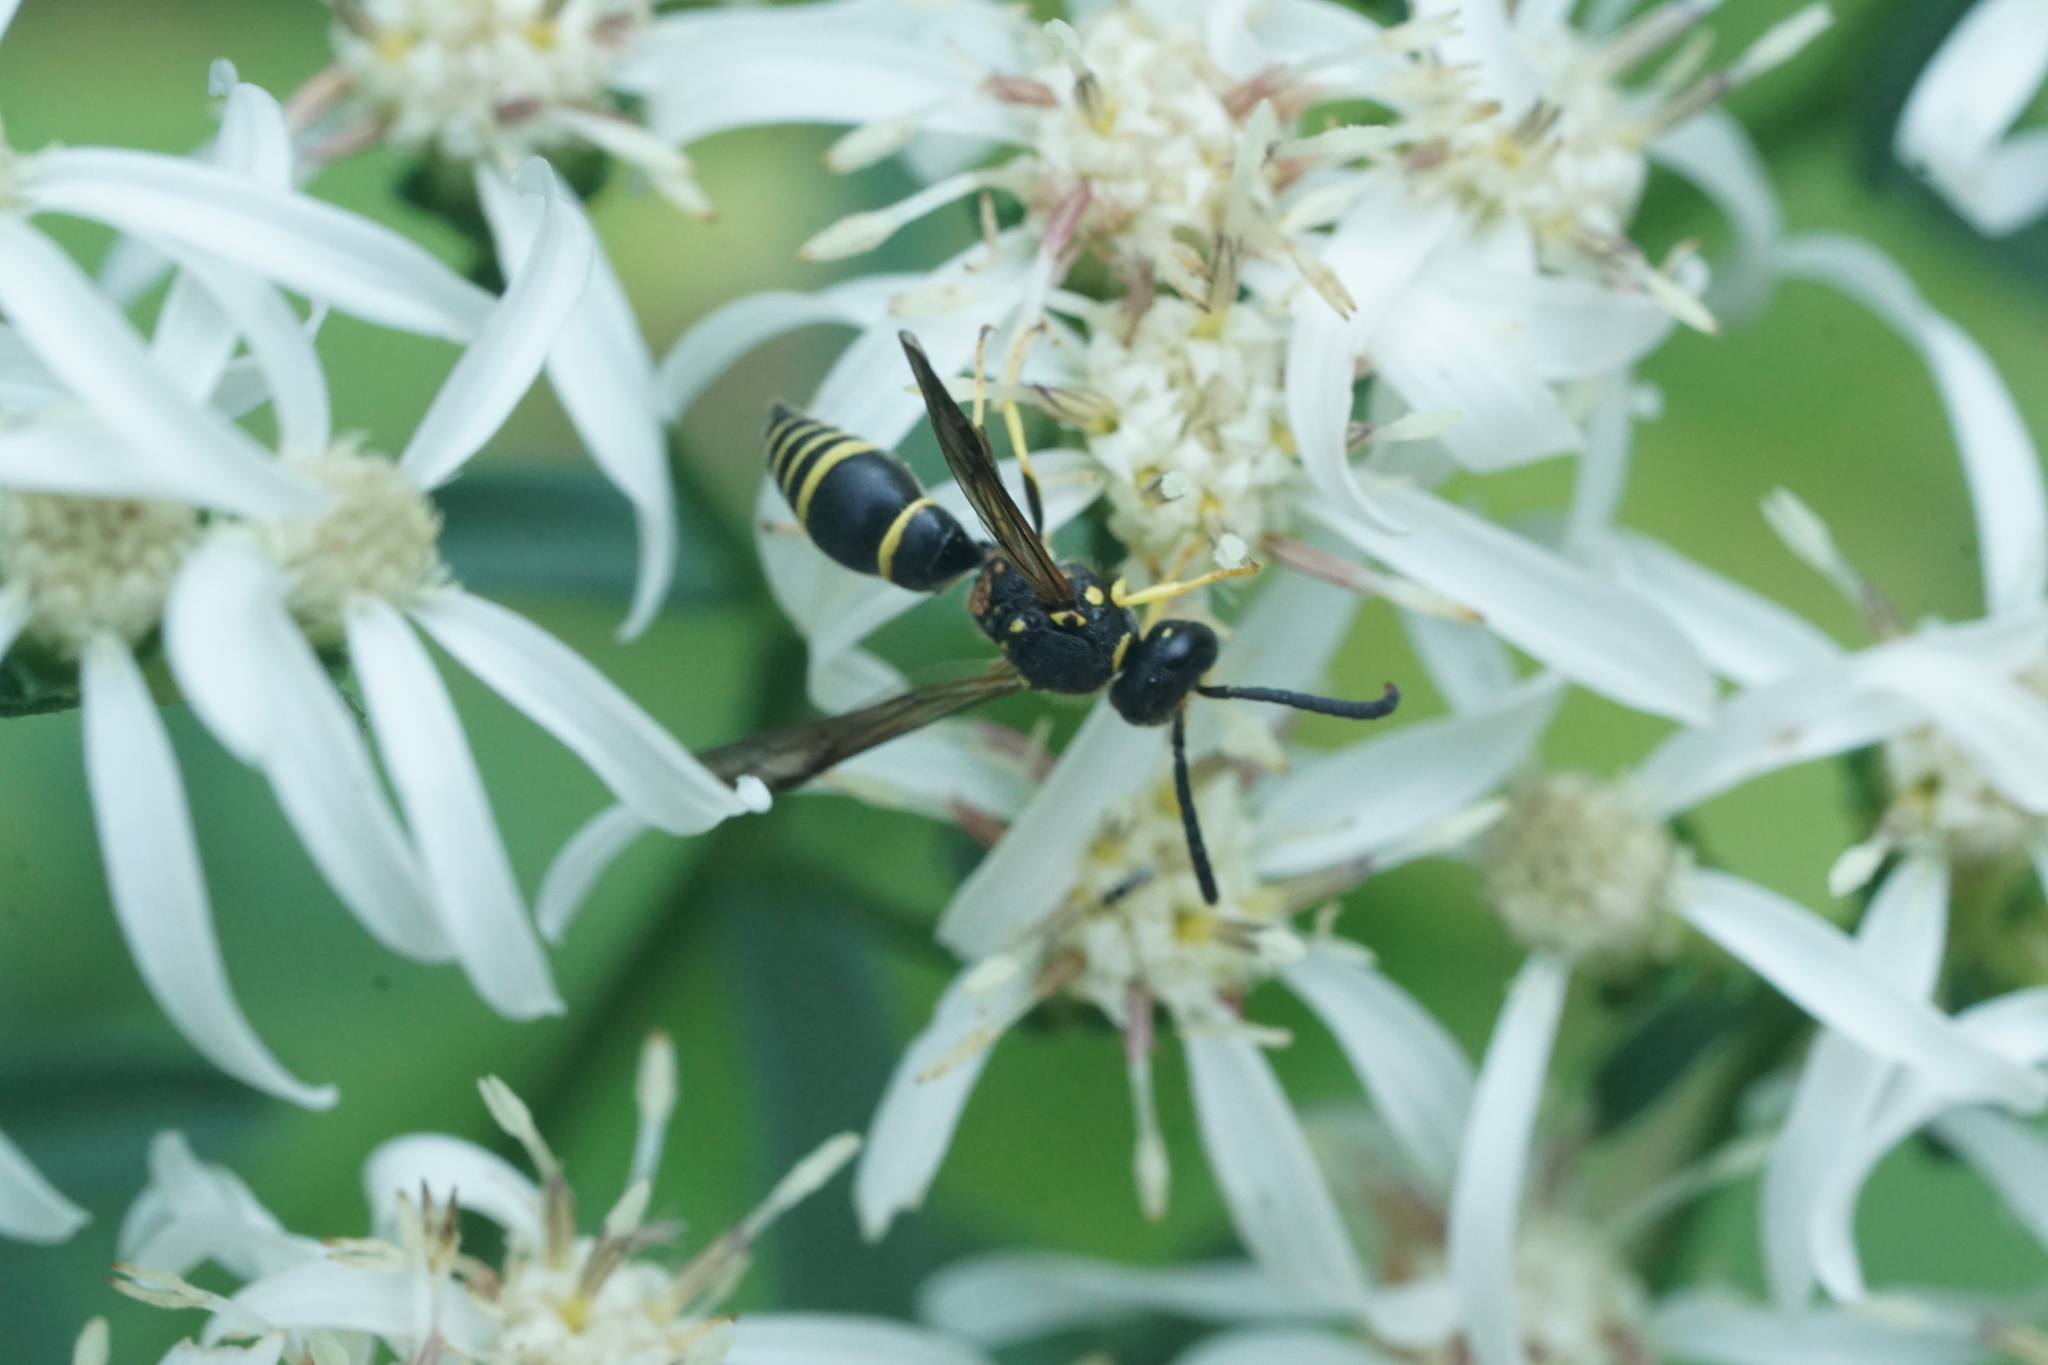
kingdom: Animalia
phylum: Arthropoda
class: Insecta
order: Hymenoptera
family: Vespidae
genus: Ancistrocerus
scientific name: Ancistrocerus
